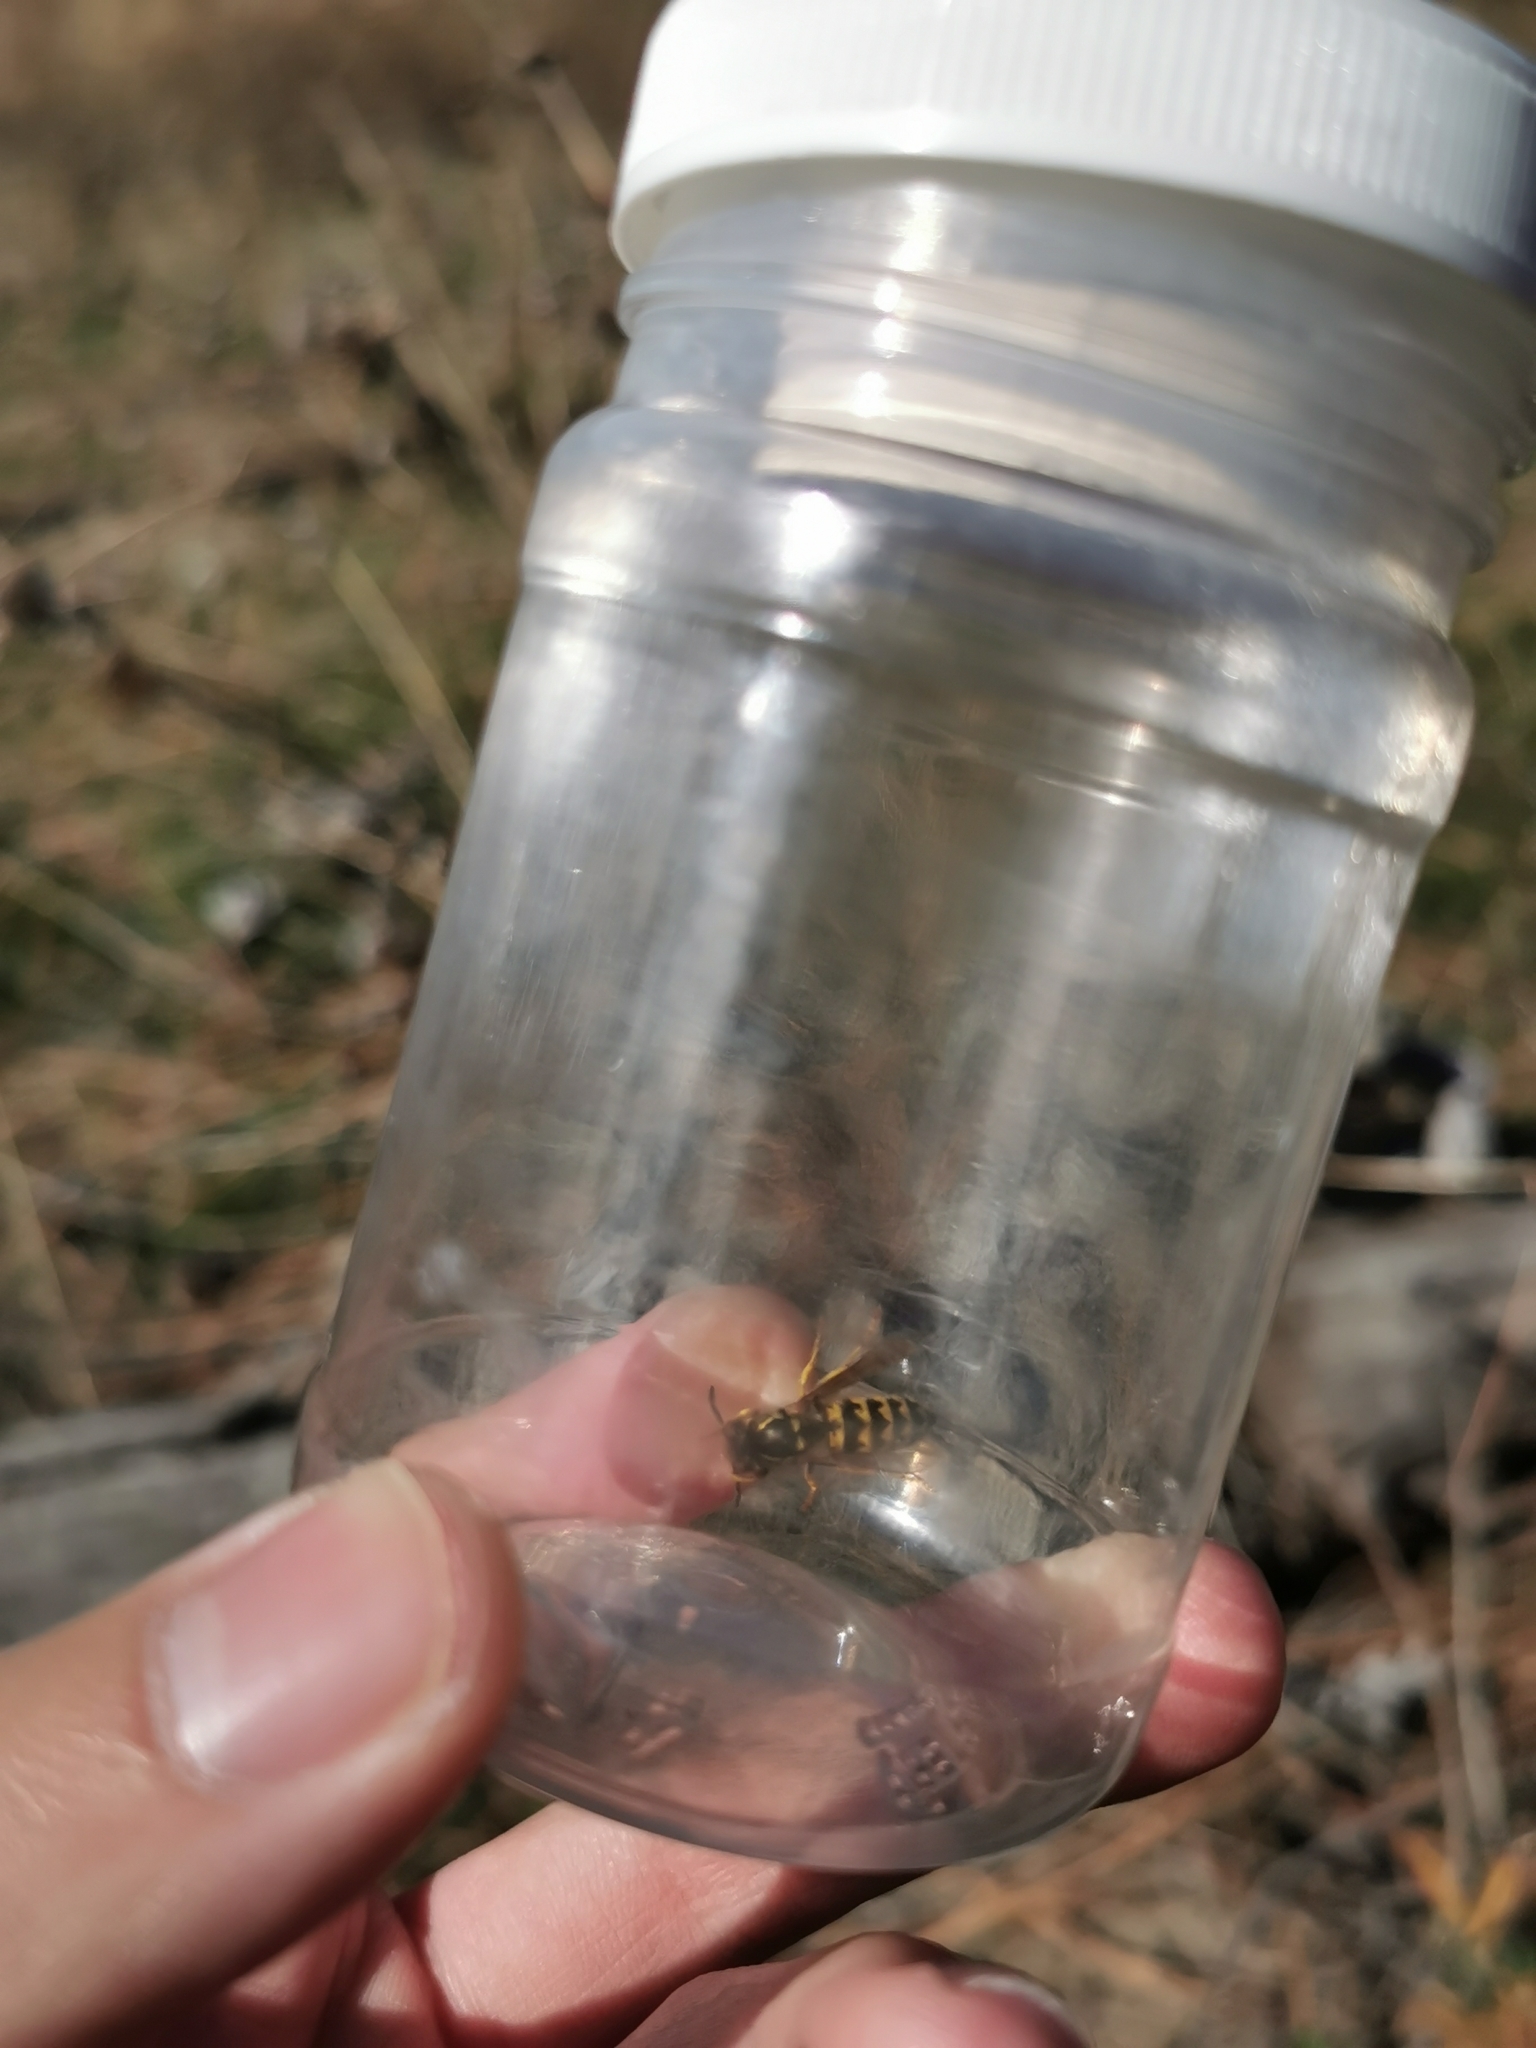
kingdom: Animalia
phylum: Arthropoda
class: Insecta
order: Hymenoptera
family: Vespidae
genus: Vespula
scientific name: Vespula pensylvanica
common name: Western yellowjacket
